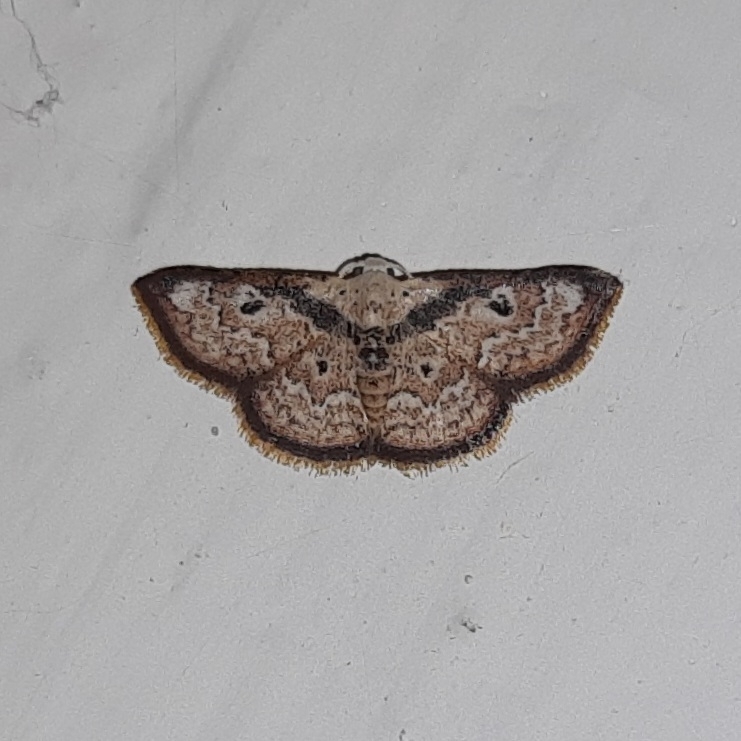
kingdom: Animalia
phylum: Arthropoda
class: Insecta
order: Lepidoptera
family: Noctuidae
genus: Enispa
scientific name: Enispa regulata
